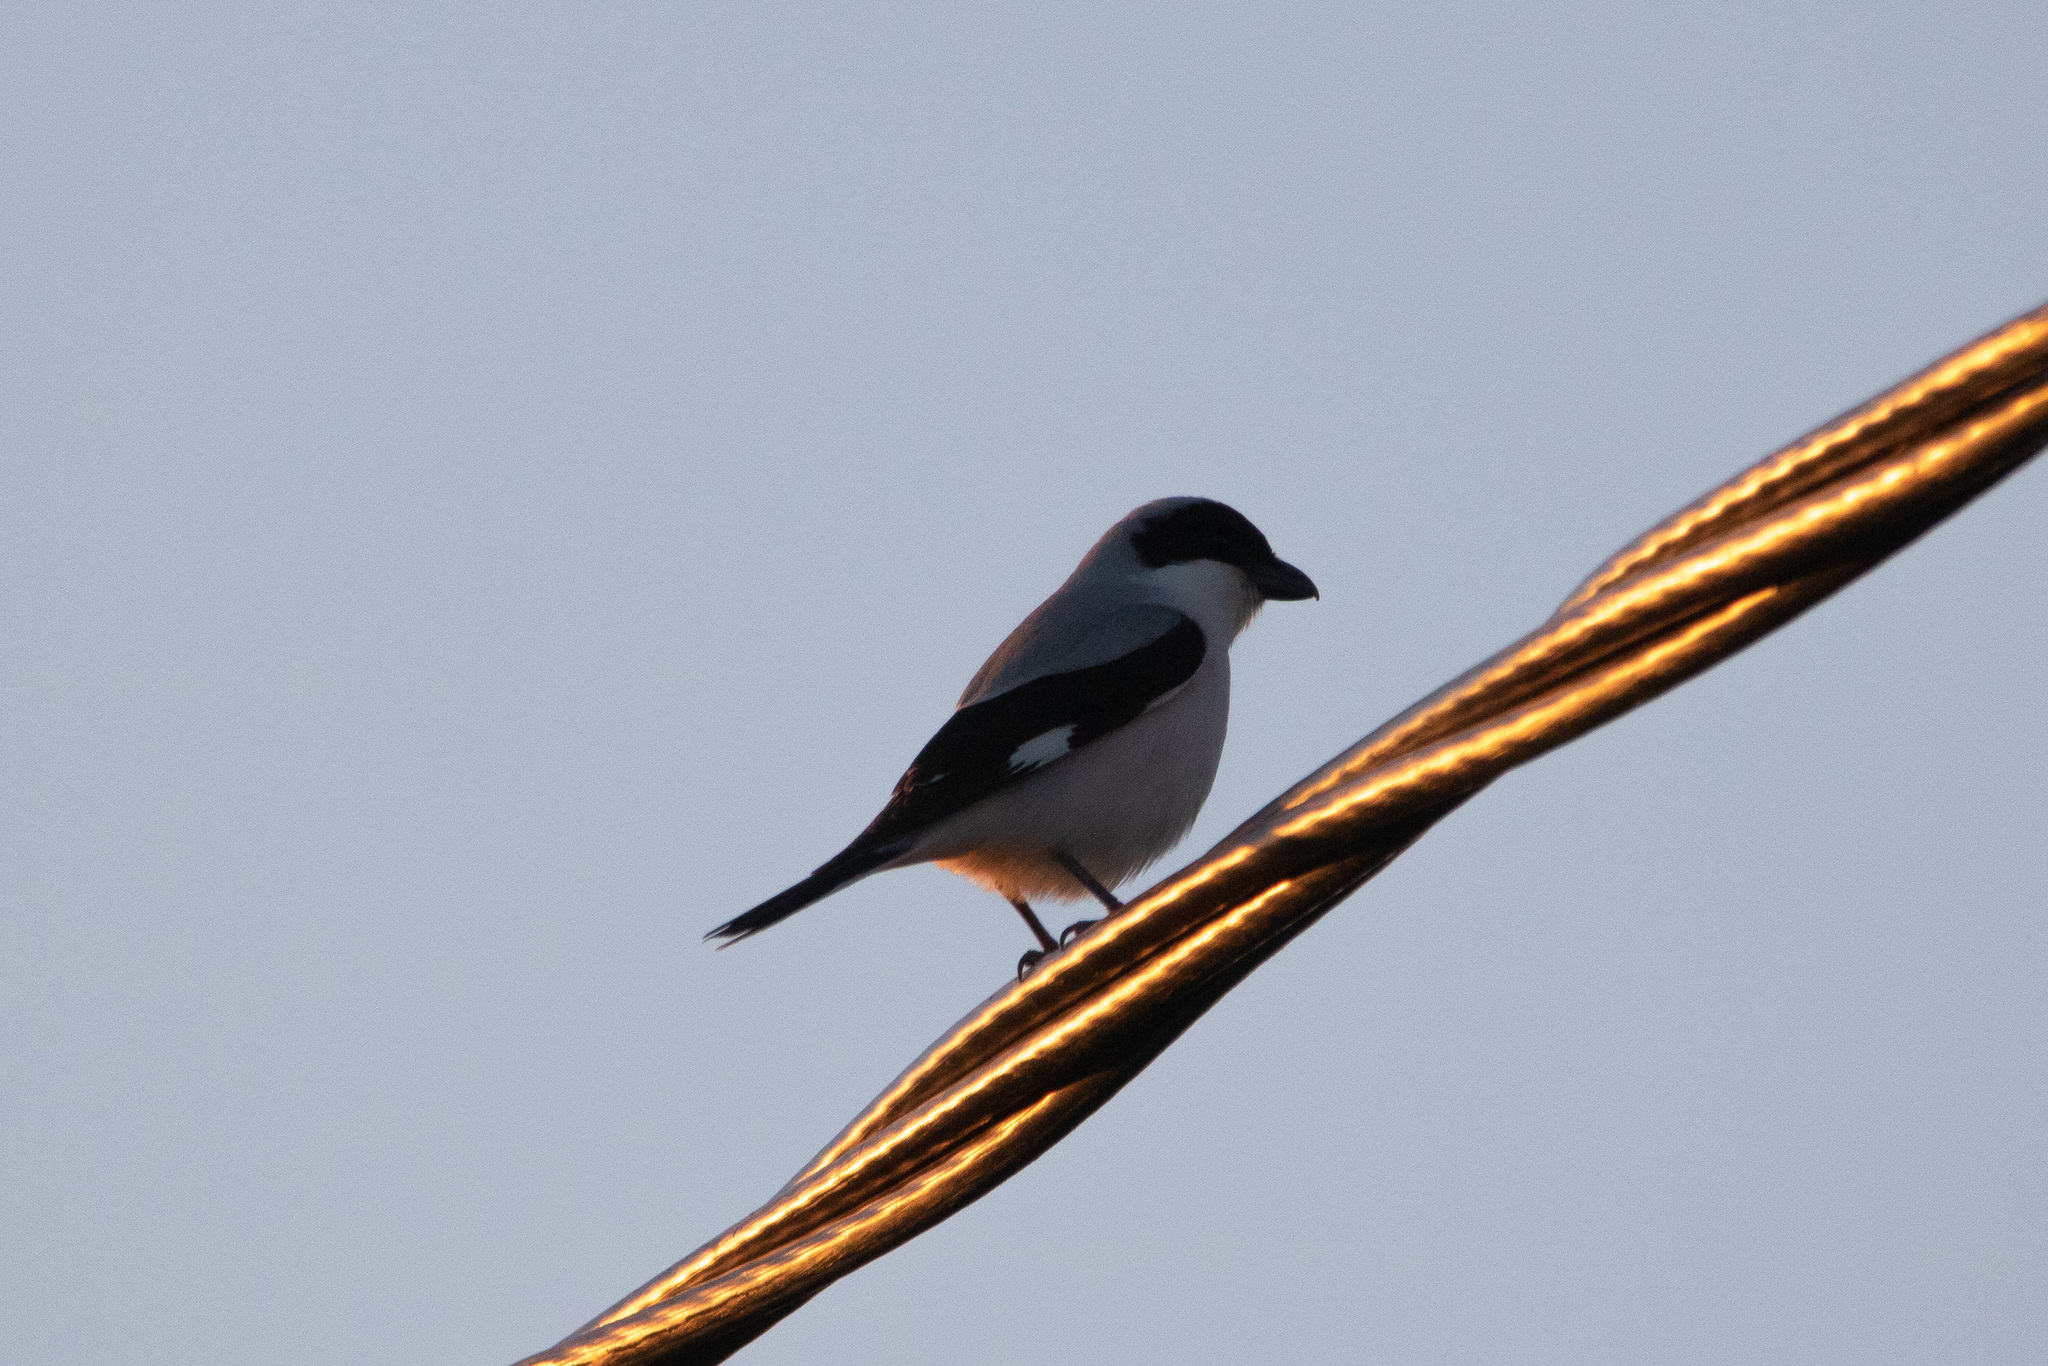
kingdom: Animalia
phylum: Chordata
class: Aves
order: Passeriformes
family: Laniidae
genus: Lanius
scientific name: Lanius minor
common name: Lesser grey shrike
